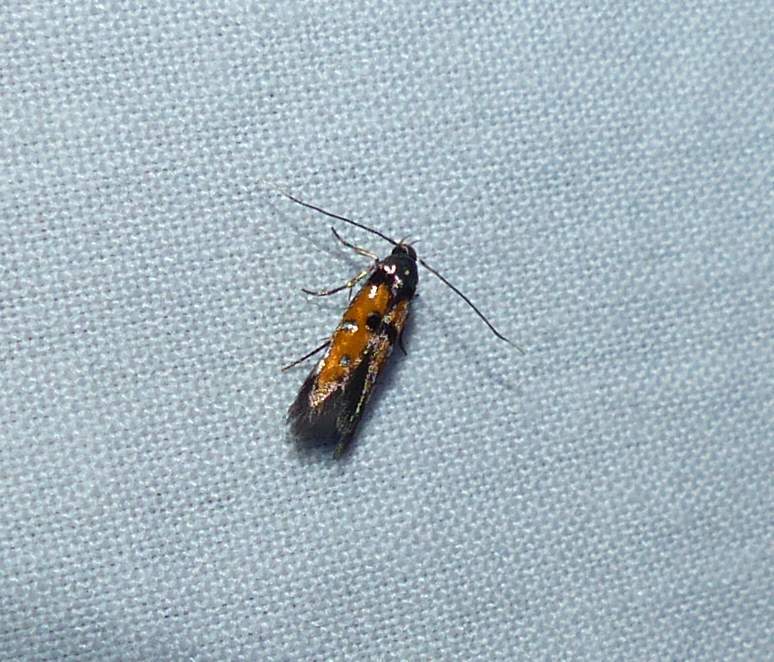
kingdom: Animalia
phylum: Arthropoda
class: Insecta
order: Lepidoptera
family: Elachistidae
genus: Chrysoclista
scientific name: Chrysoclista linneela
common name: Lime cosmet
